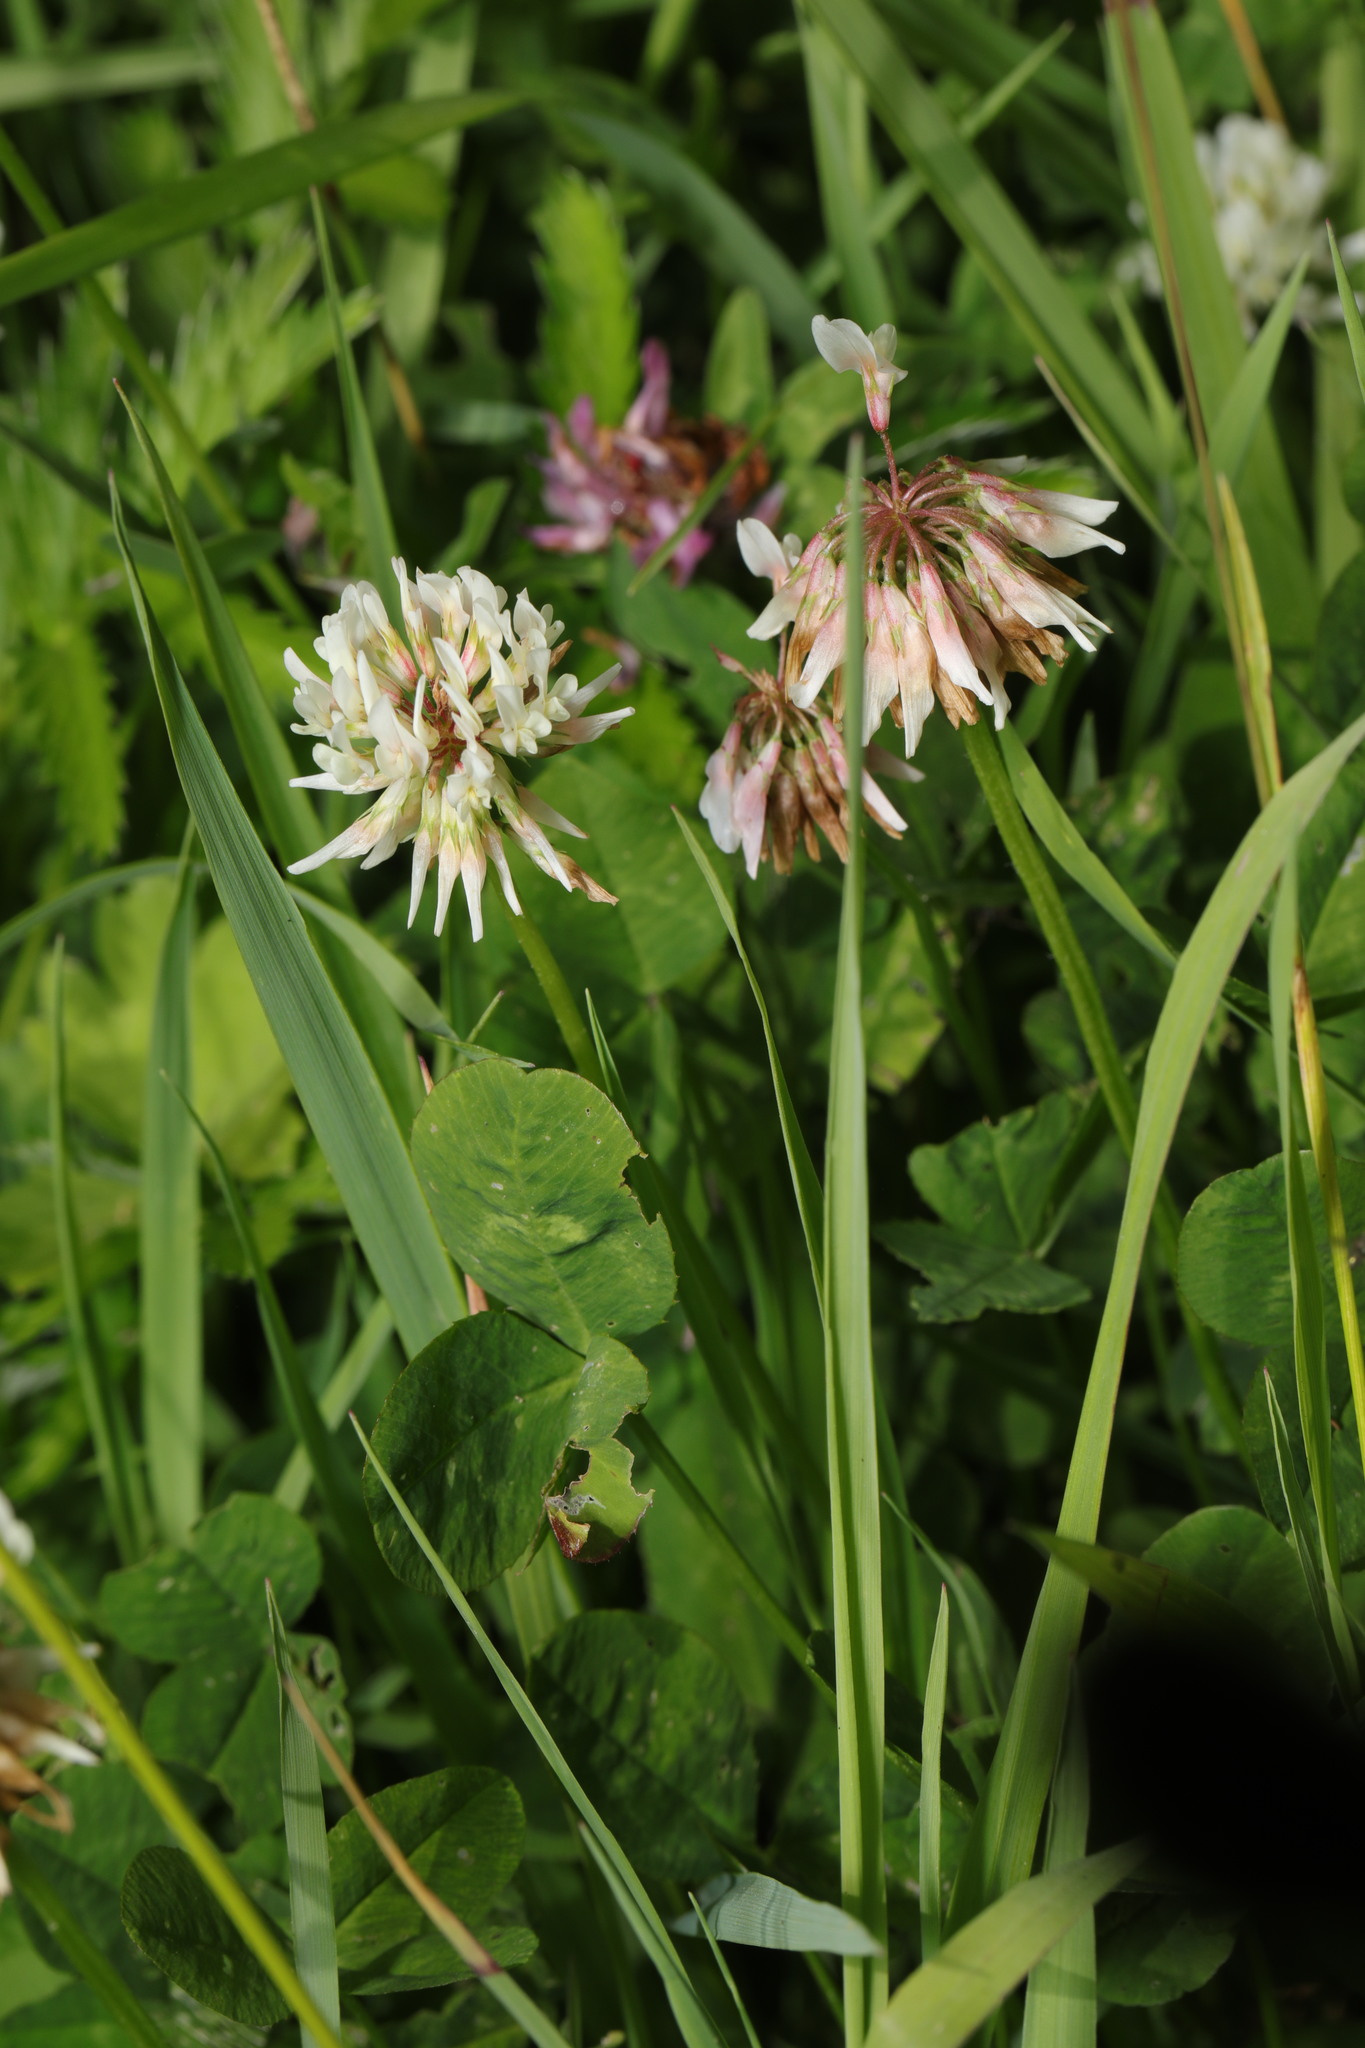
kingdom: Plantae
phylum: Tracheophyta
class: Magnoliopsida
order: Fabales
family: Fabaceae
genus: Trifolium
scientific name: Trifolium repens
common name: White clover
